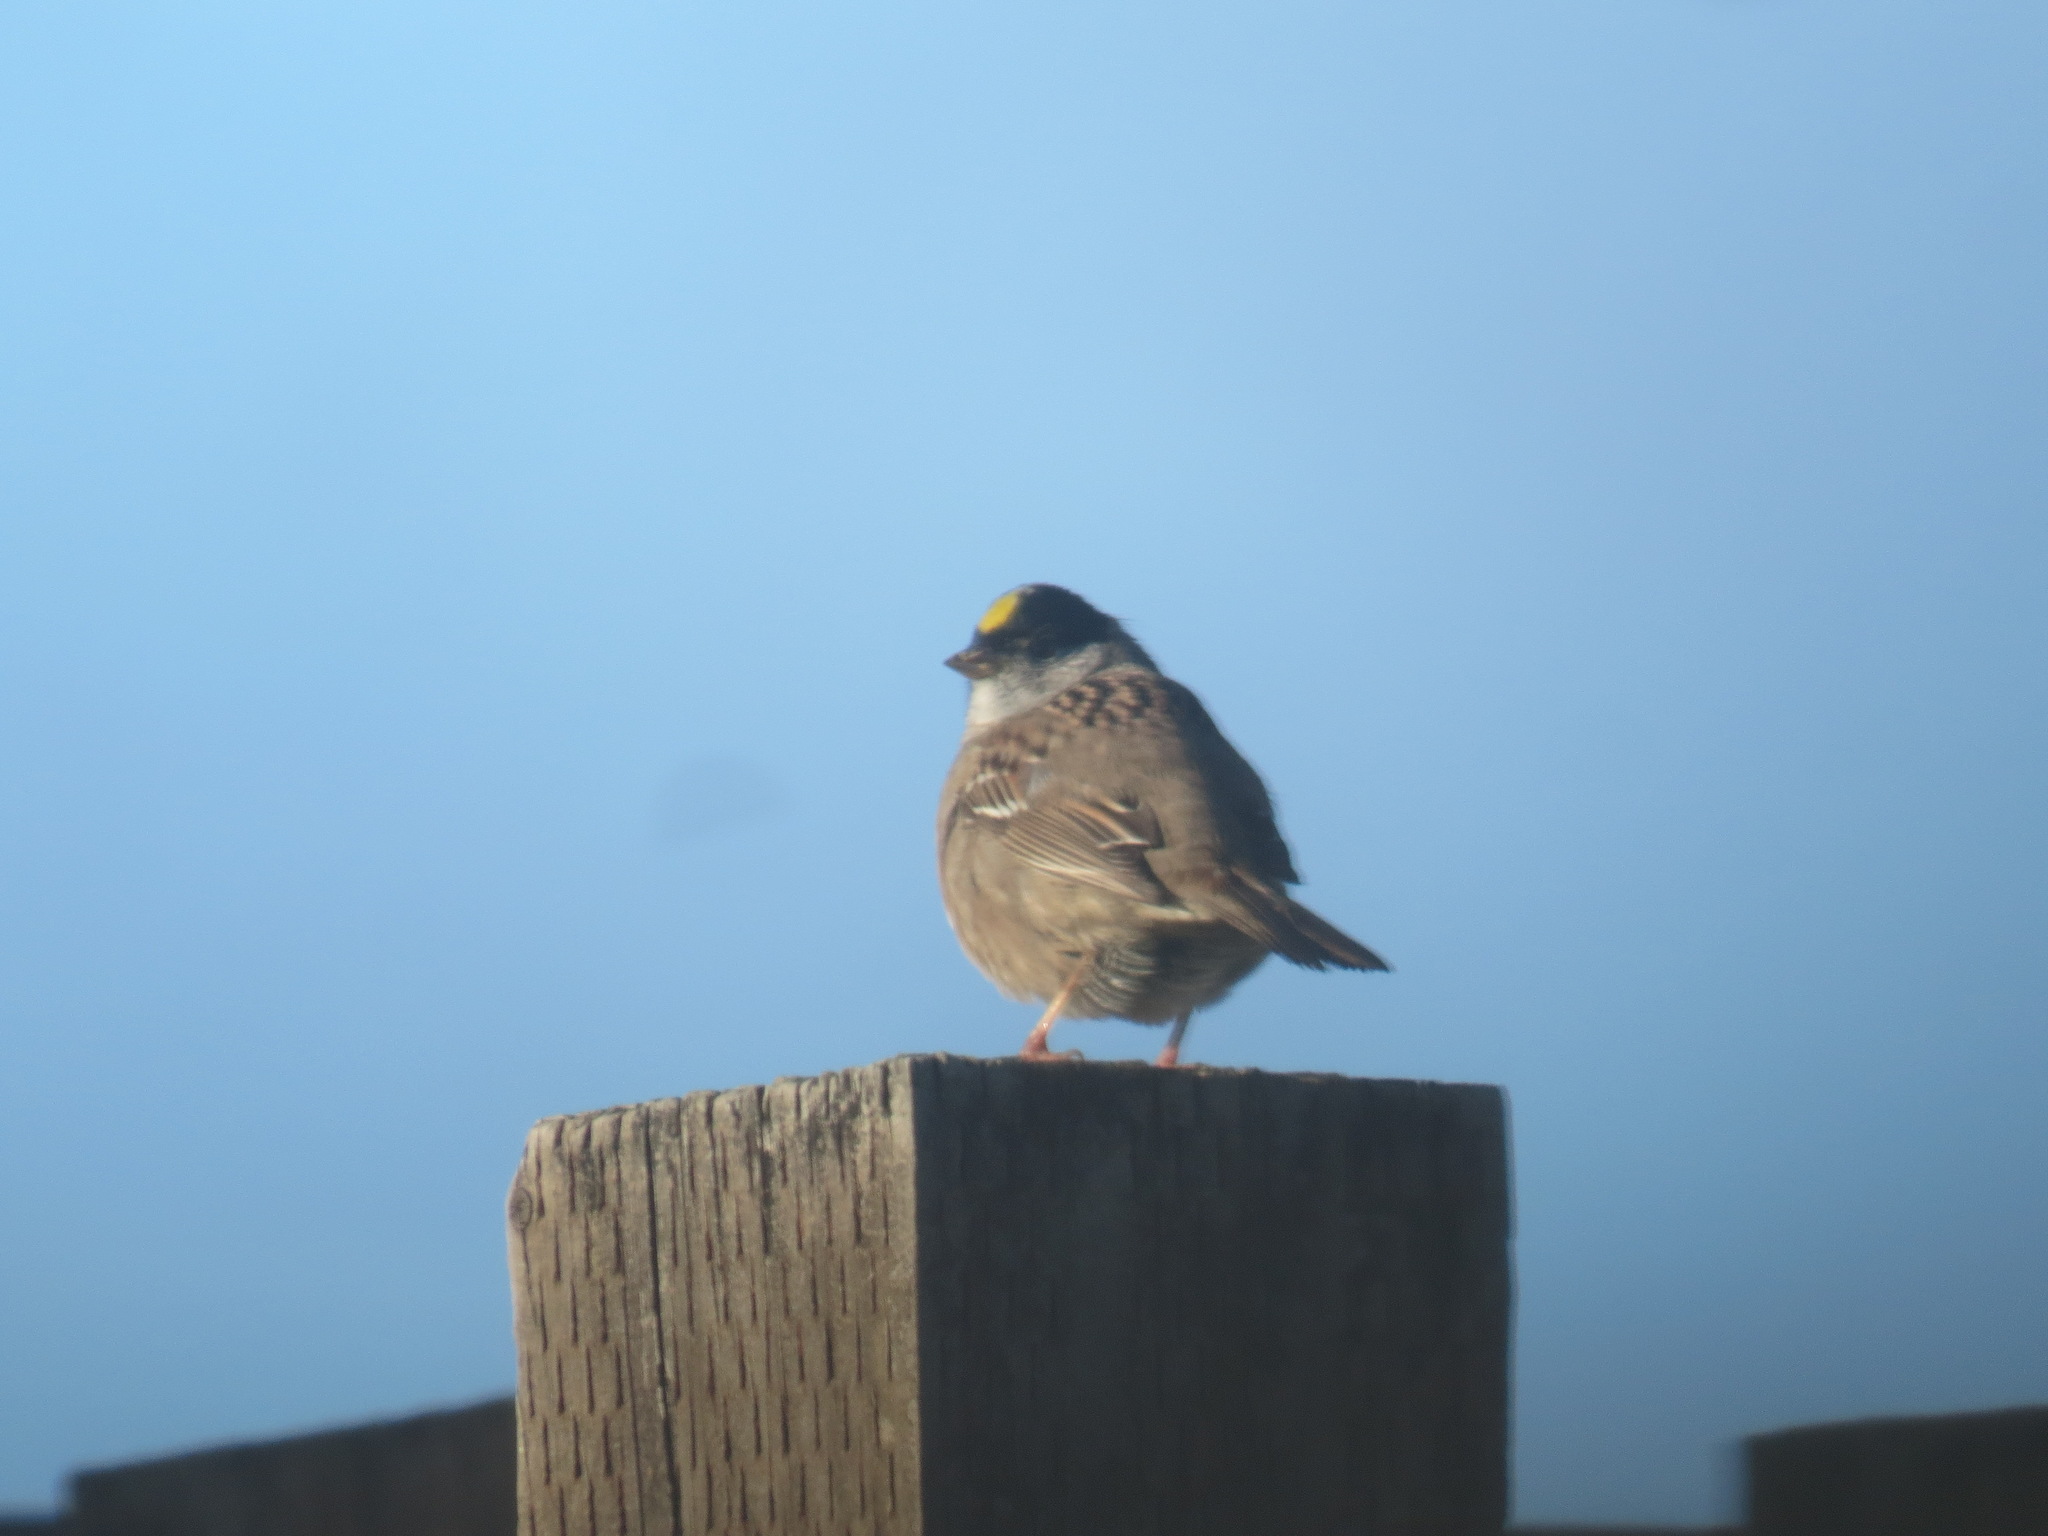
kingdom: Animalia
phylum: Chordata
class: Aves
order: Passeriformes
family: Passerellidae
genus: Zonotrichia
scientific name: Zonotrichia atricapilla
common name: Golden-crowned sparrow
